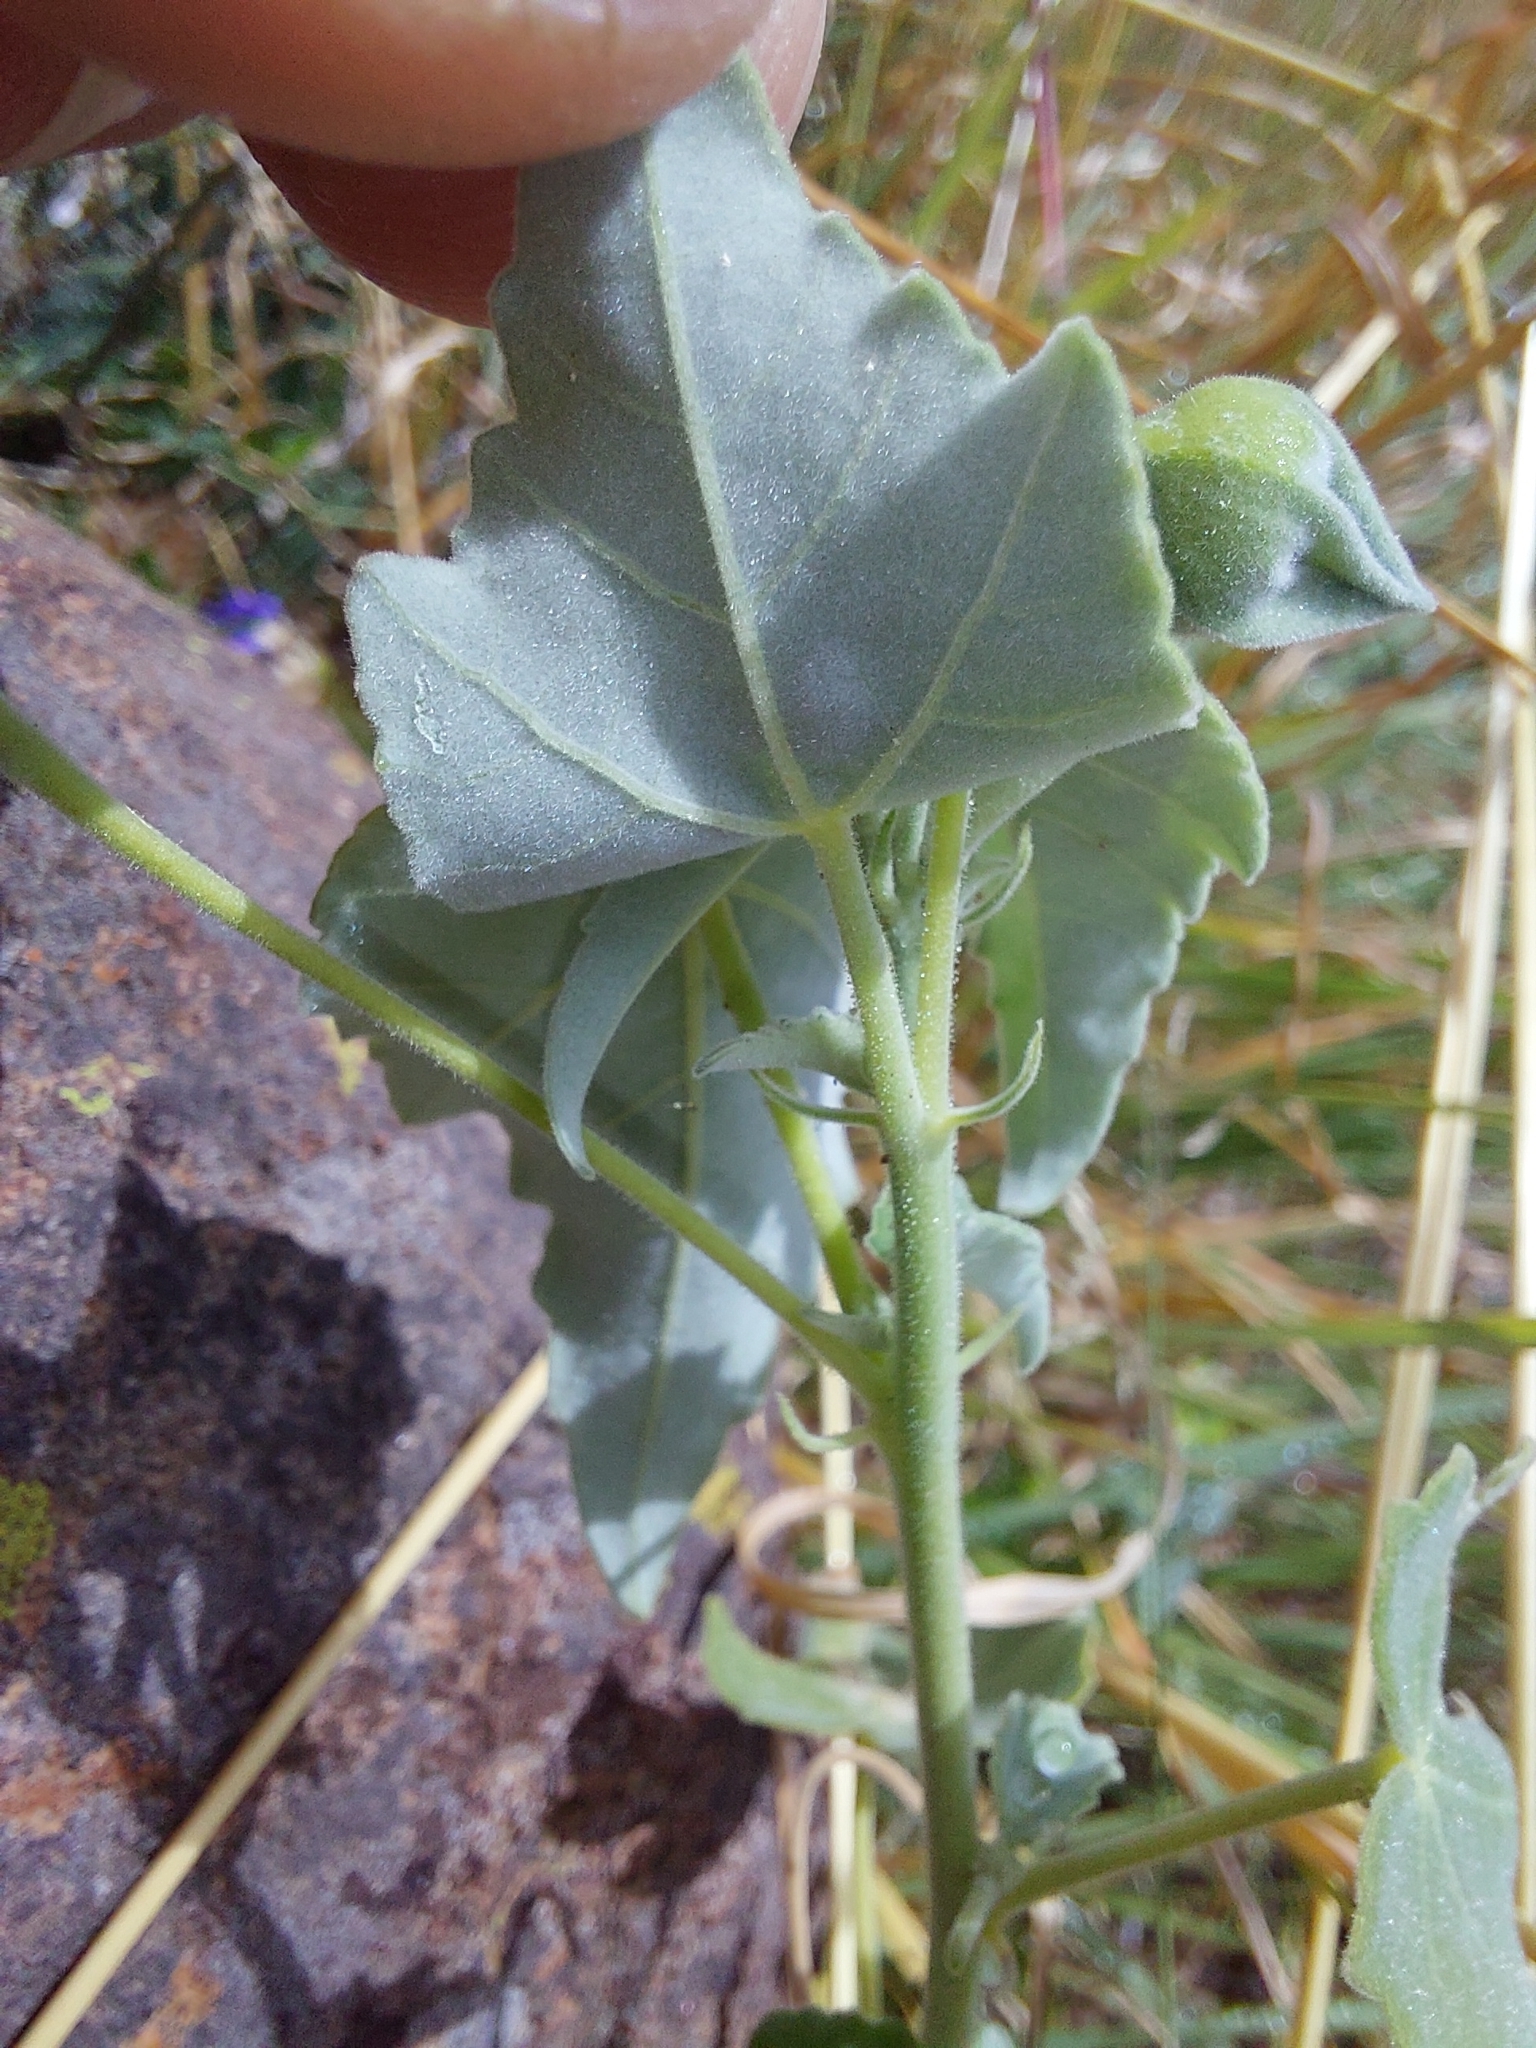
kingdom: Plantae
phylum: Tracheophyta
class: Magnoliopsida
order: Malvales
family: Malvaceae
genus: Abutilon
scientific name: Abutilon sonneratianum
